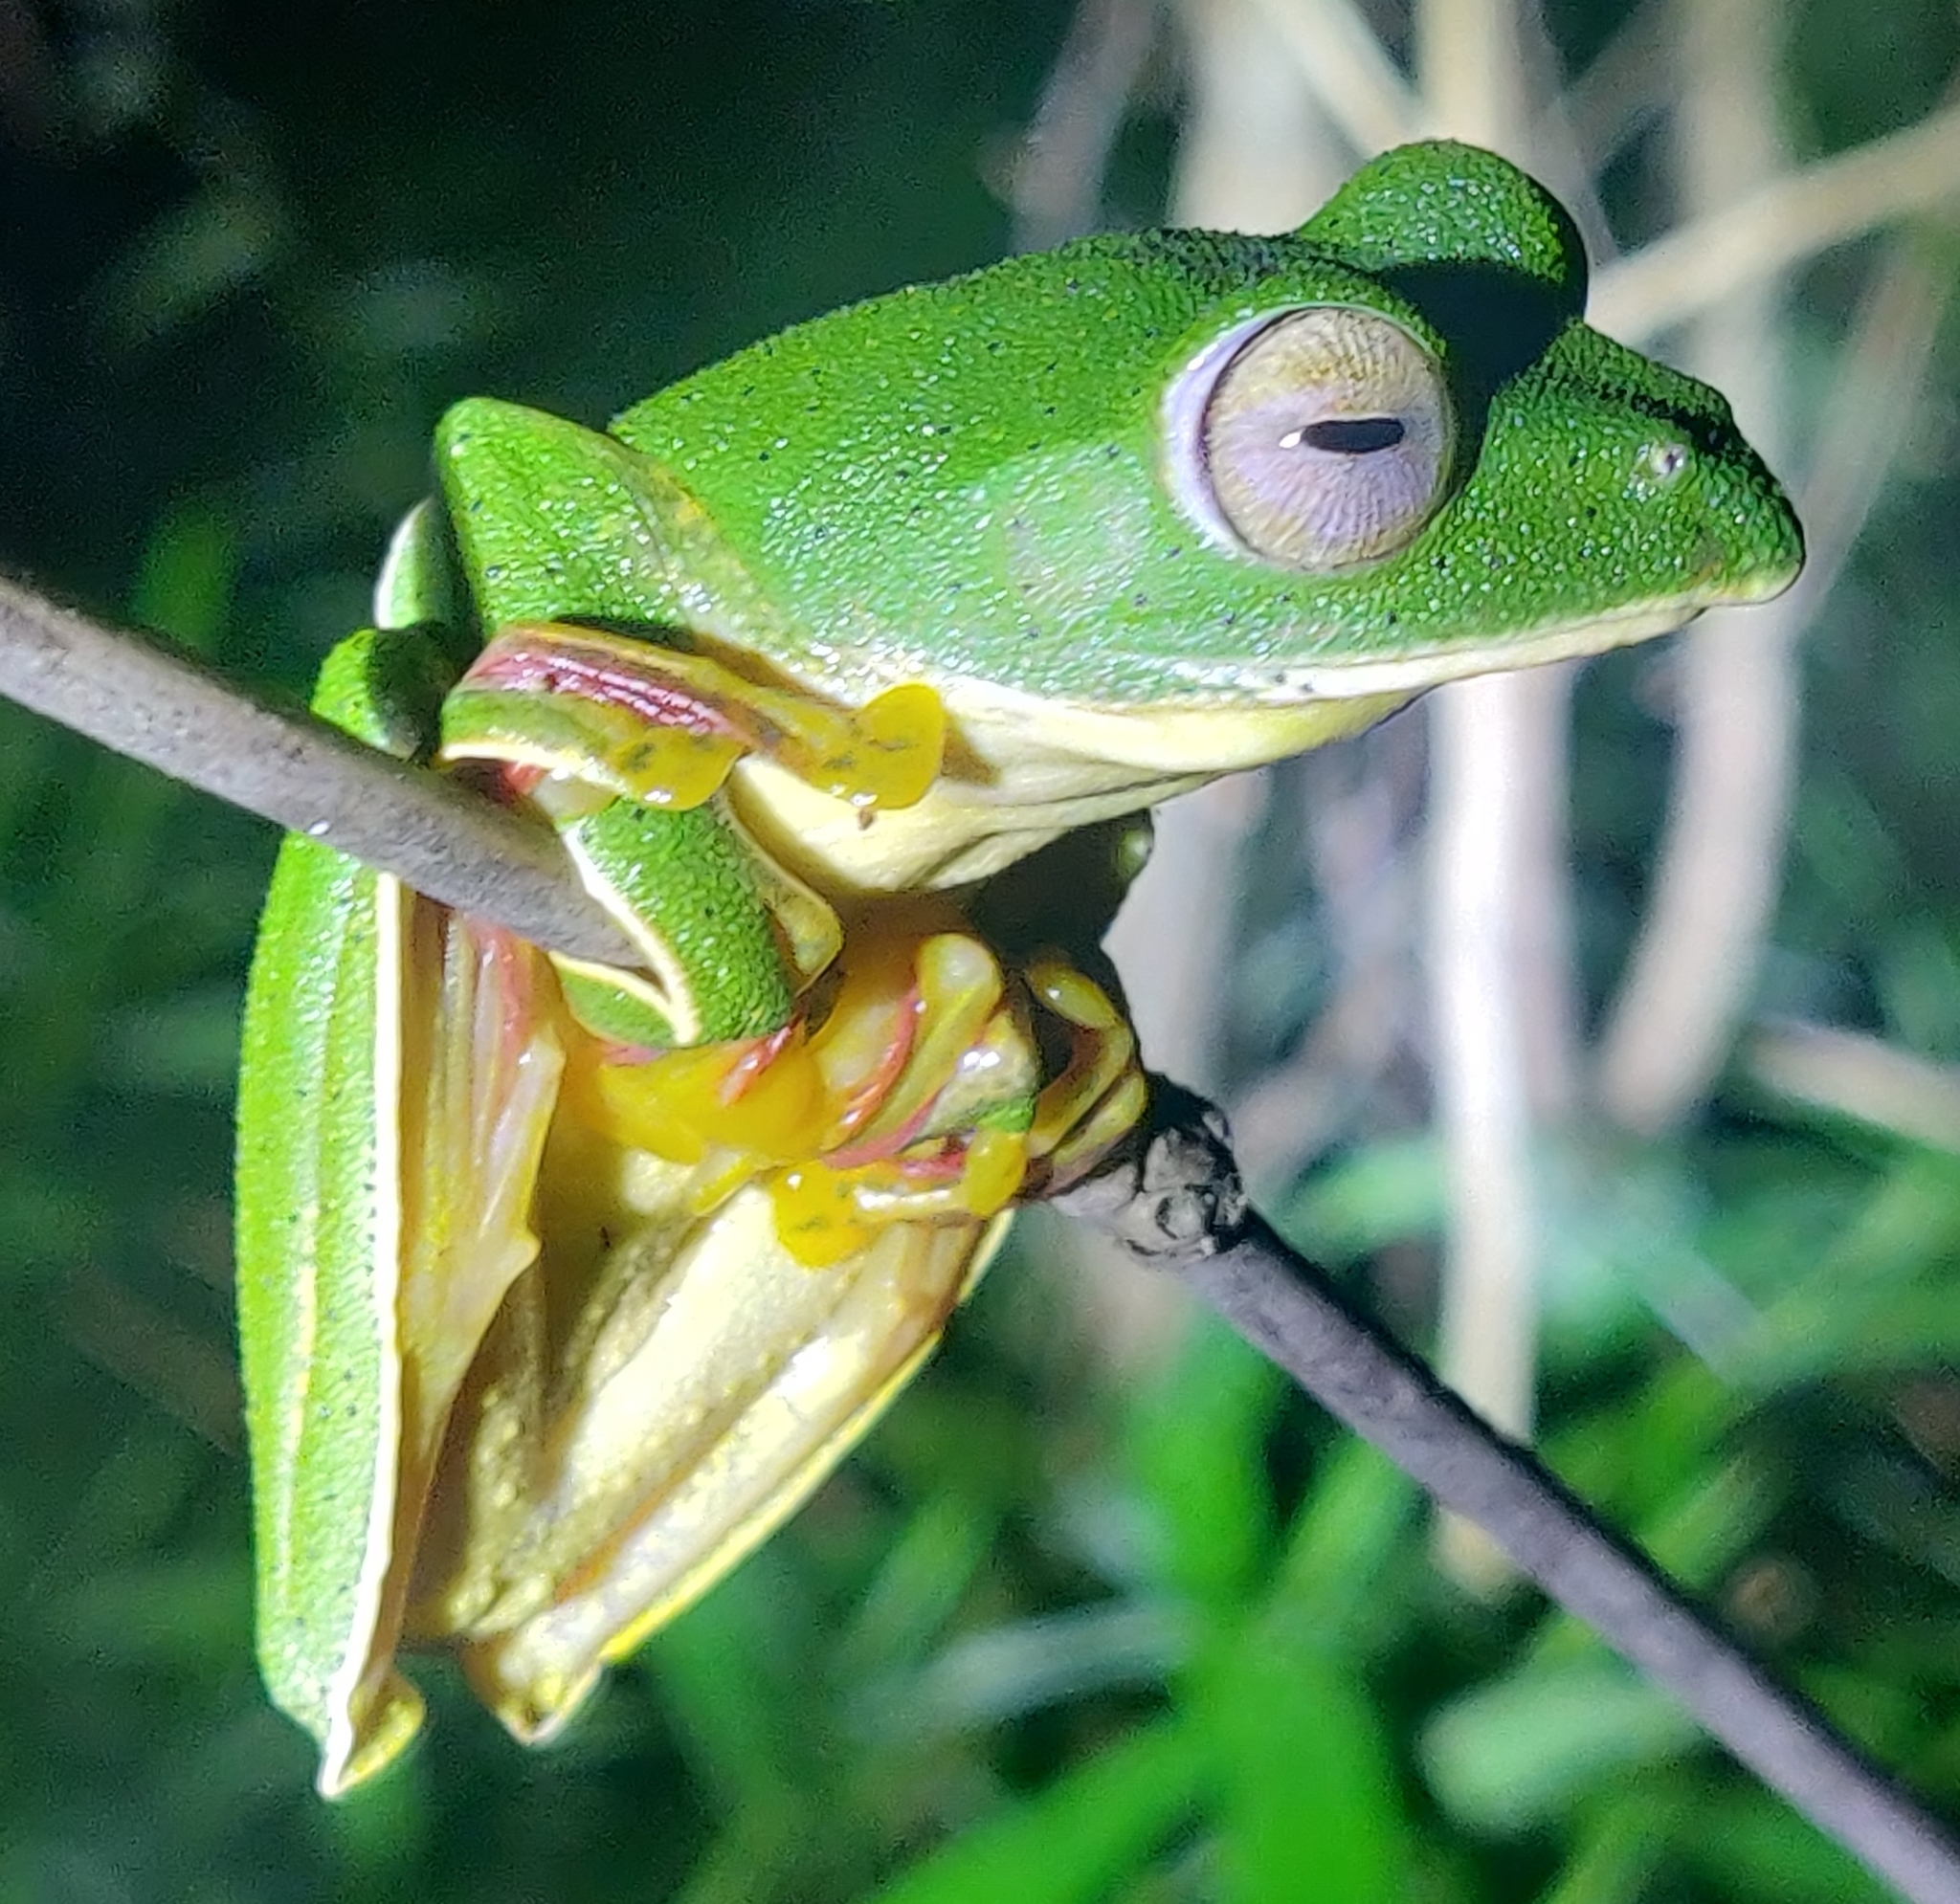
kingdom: Animalia
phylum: Chordata
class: Amphibia
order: Anura
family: Rhacophoridae
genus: Rhacophorus
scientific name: Rhacophorus malabaricus
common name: Malabar gliding frog
